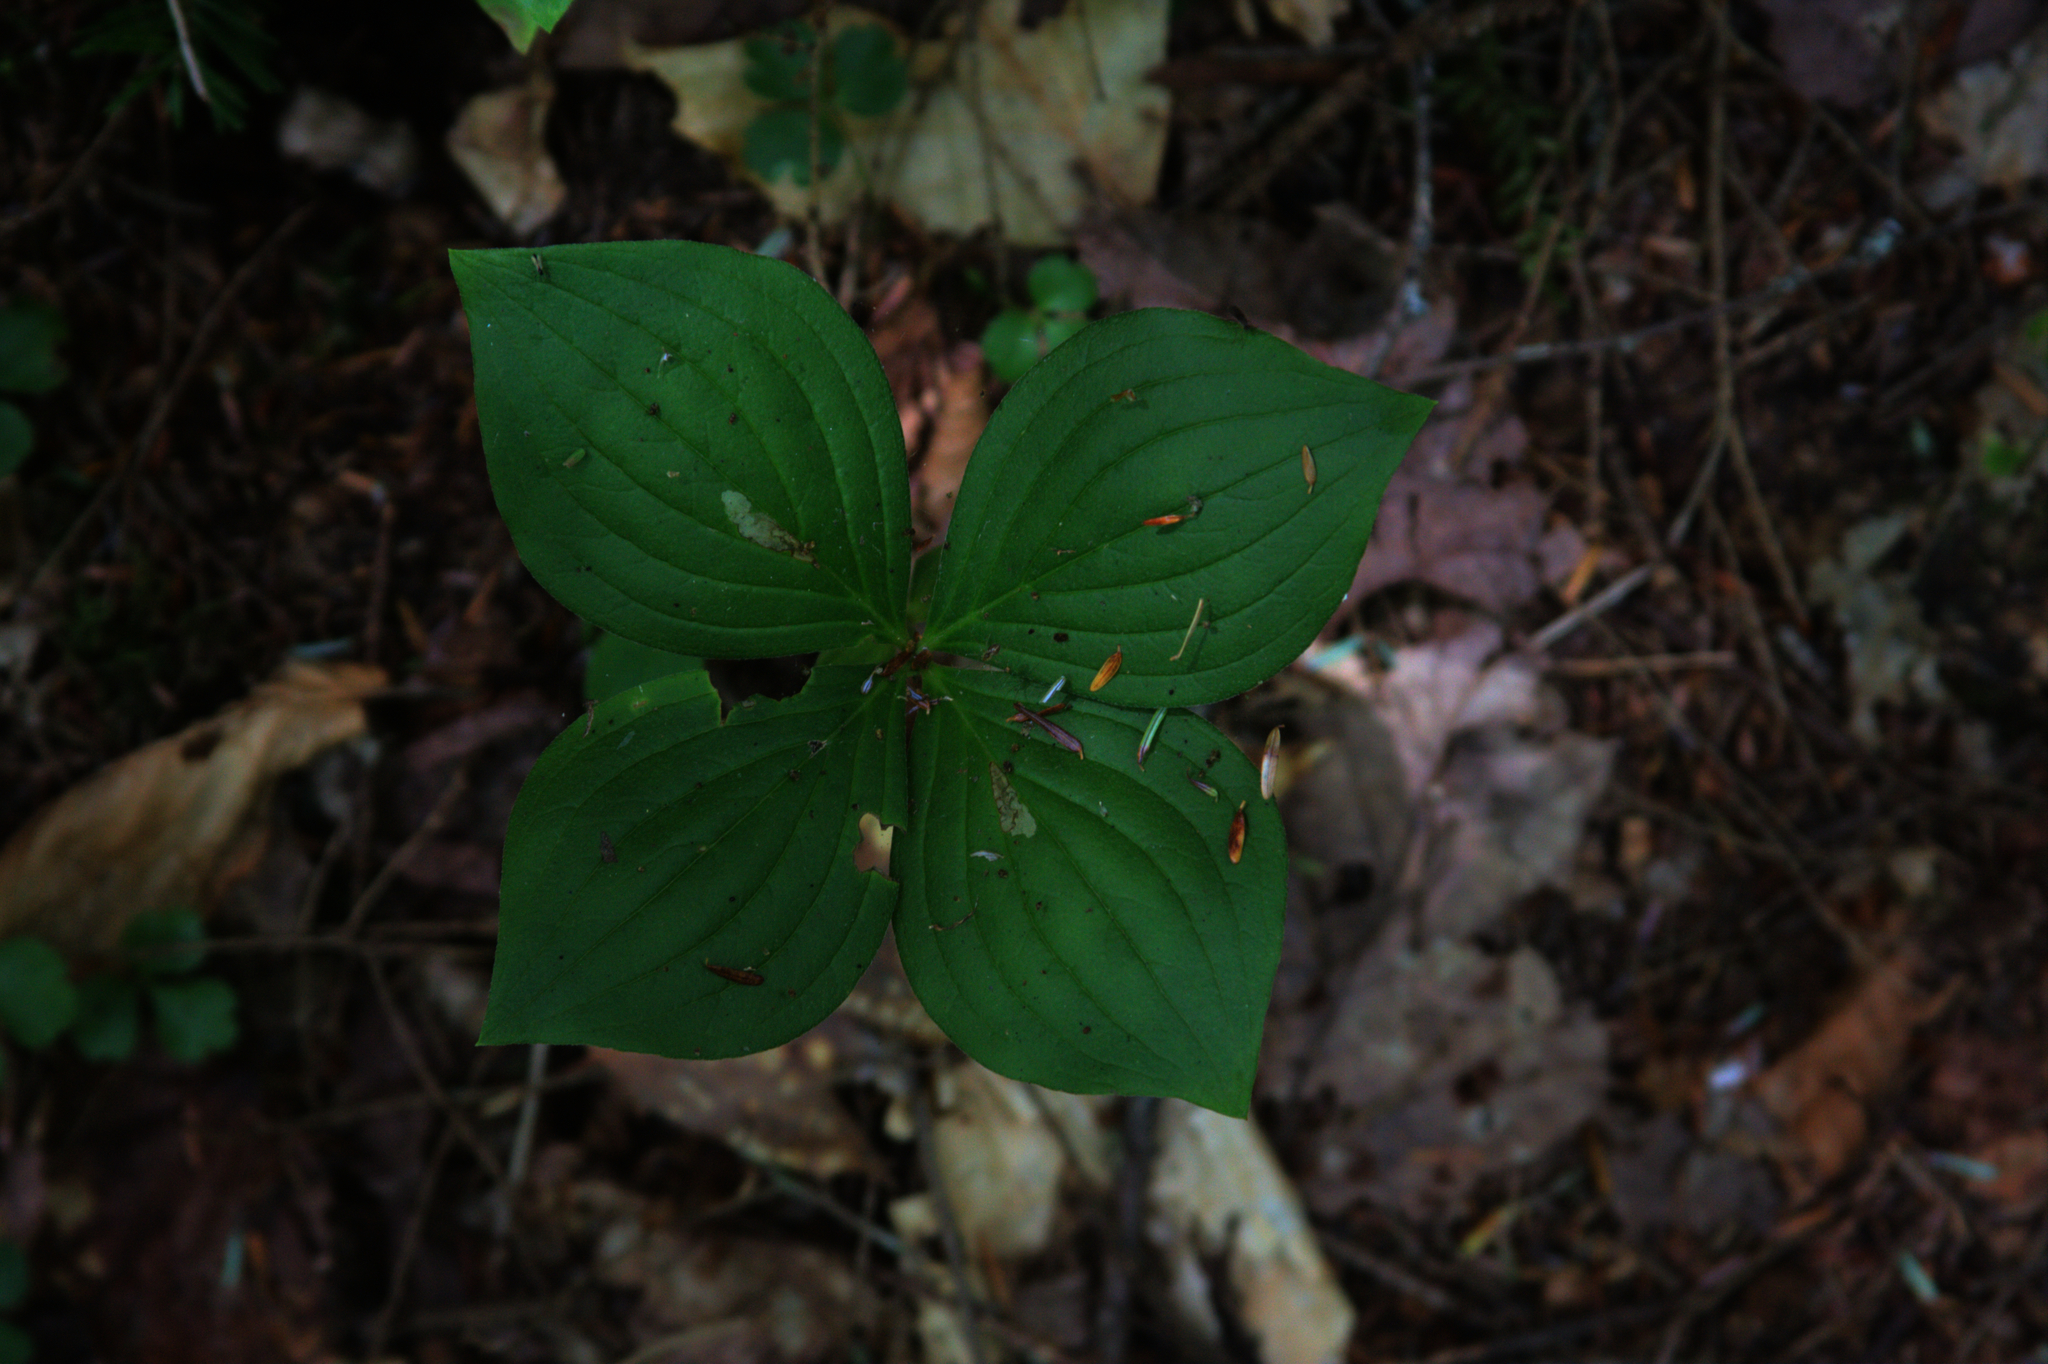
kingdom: Plantae
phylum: Tracheophyta
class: Magnoliopsida
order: Cornales
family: Cornaceae
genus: Cornus
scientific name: Cornus canadensis
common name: Creeping dogwood
